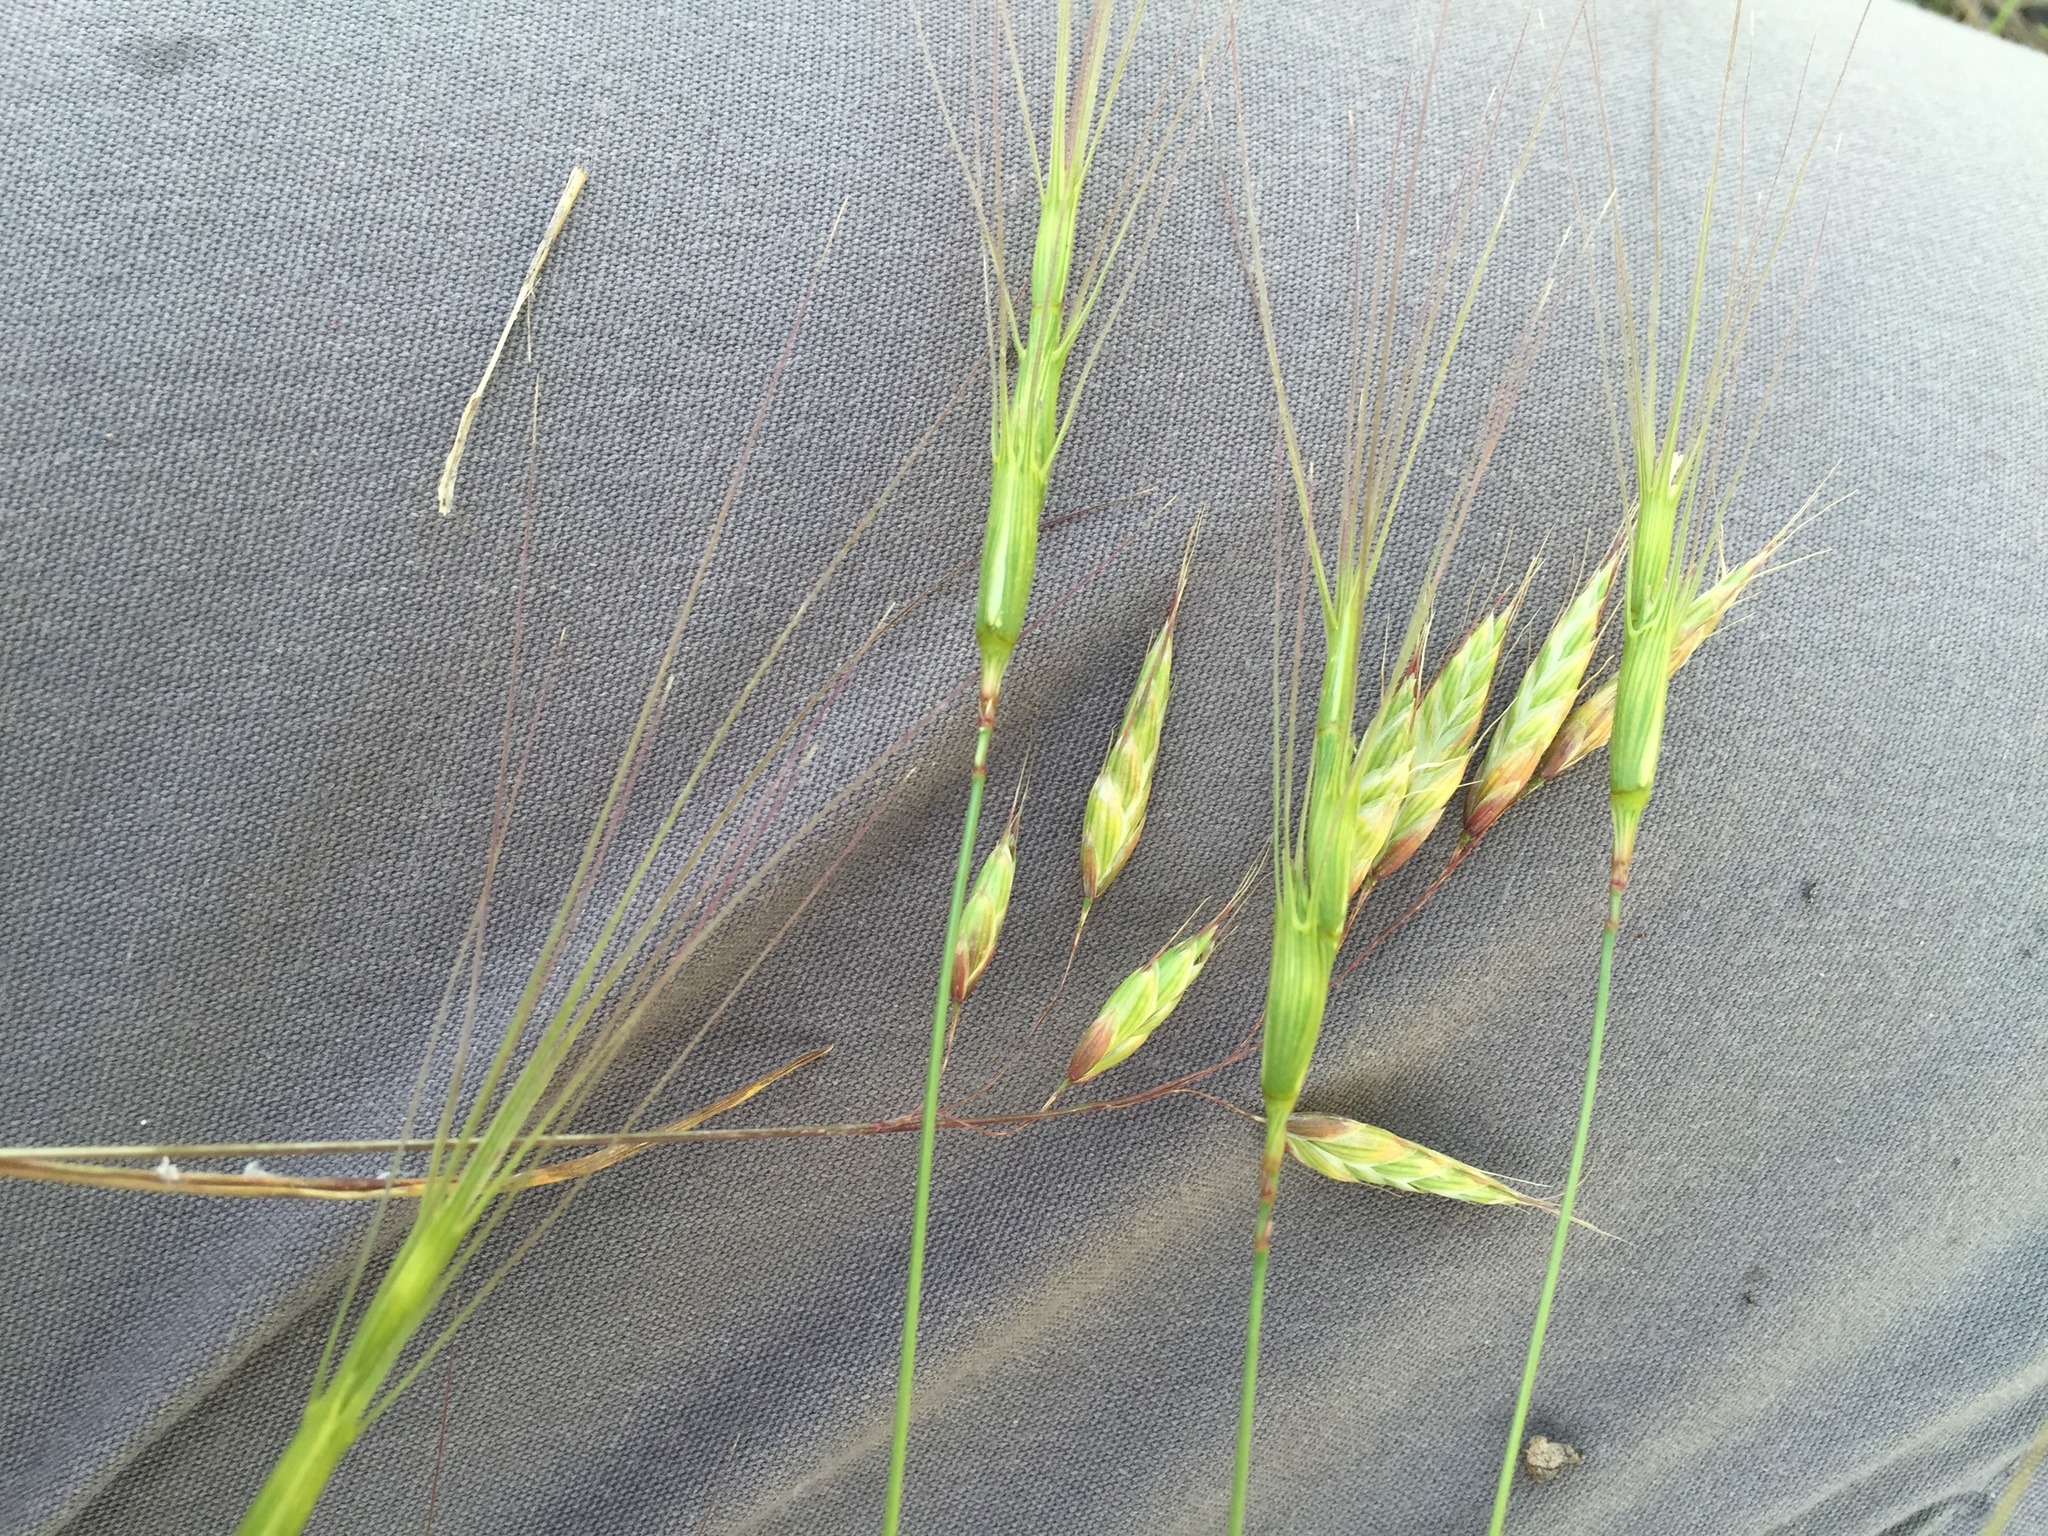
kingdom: Plantae
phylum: Tracheophyta
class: Liliopsida
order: Poales
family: Poaceae
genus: Aegilops
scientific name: Aegilops triuncialis
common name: Barb goat grass
